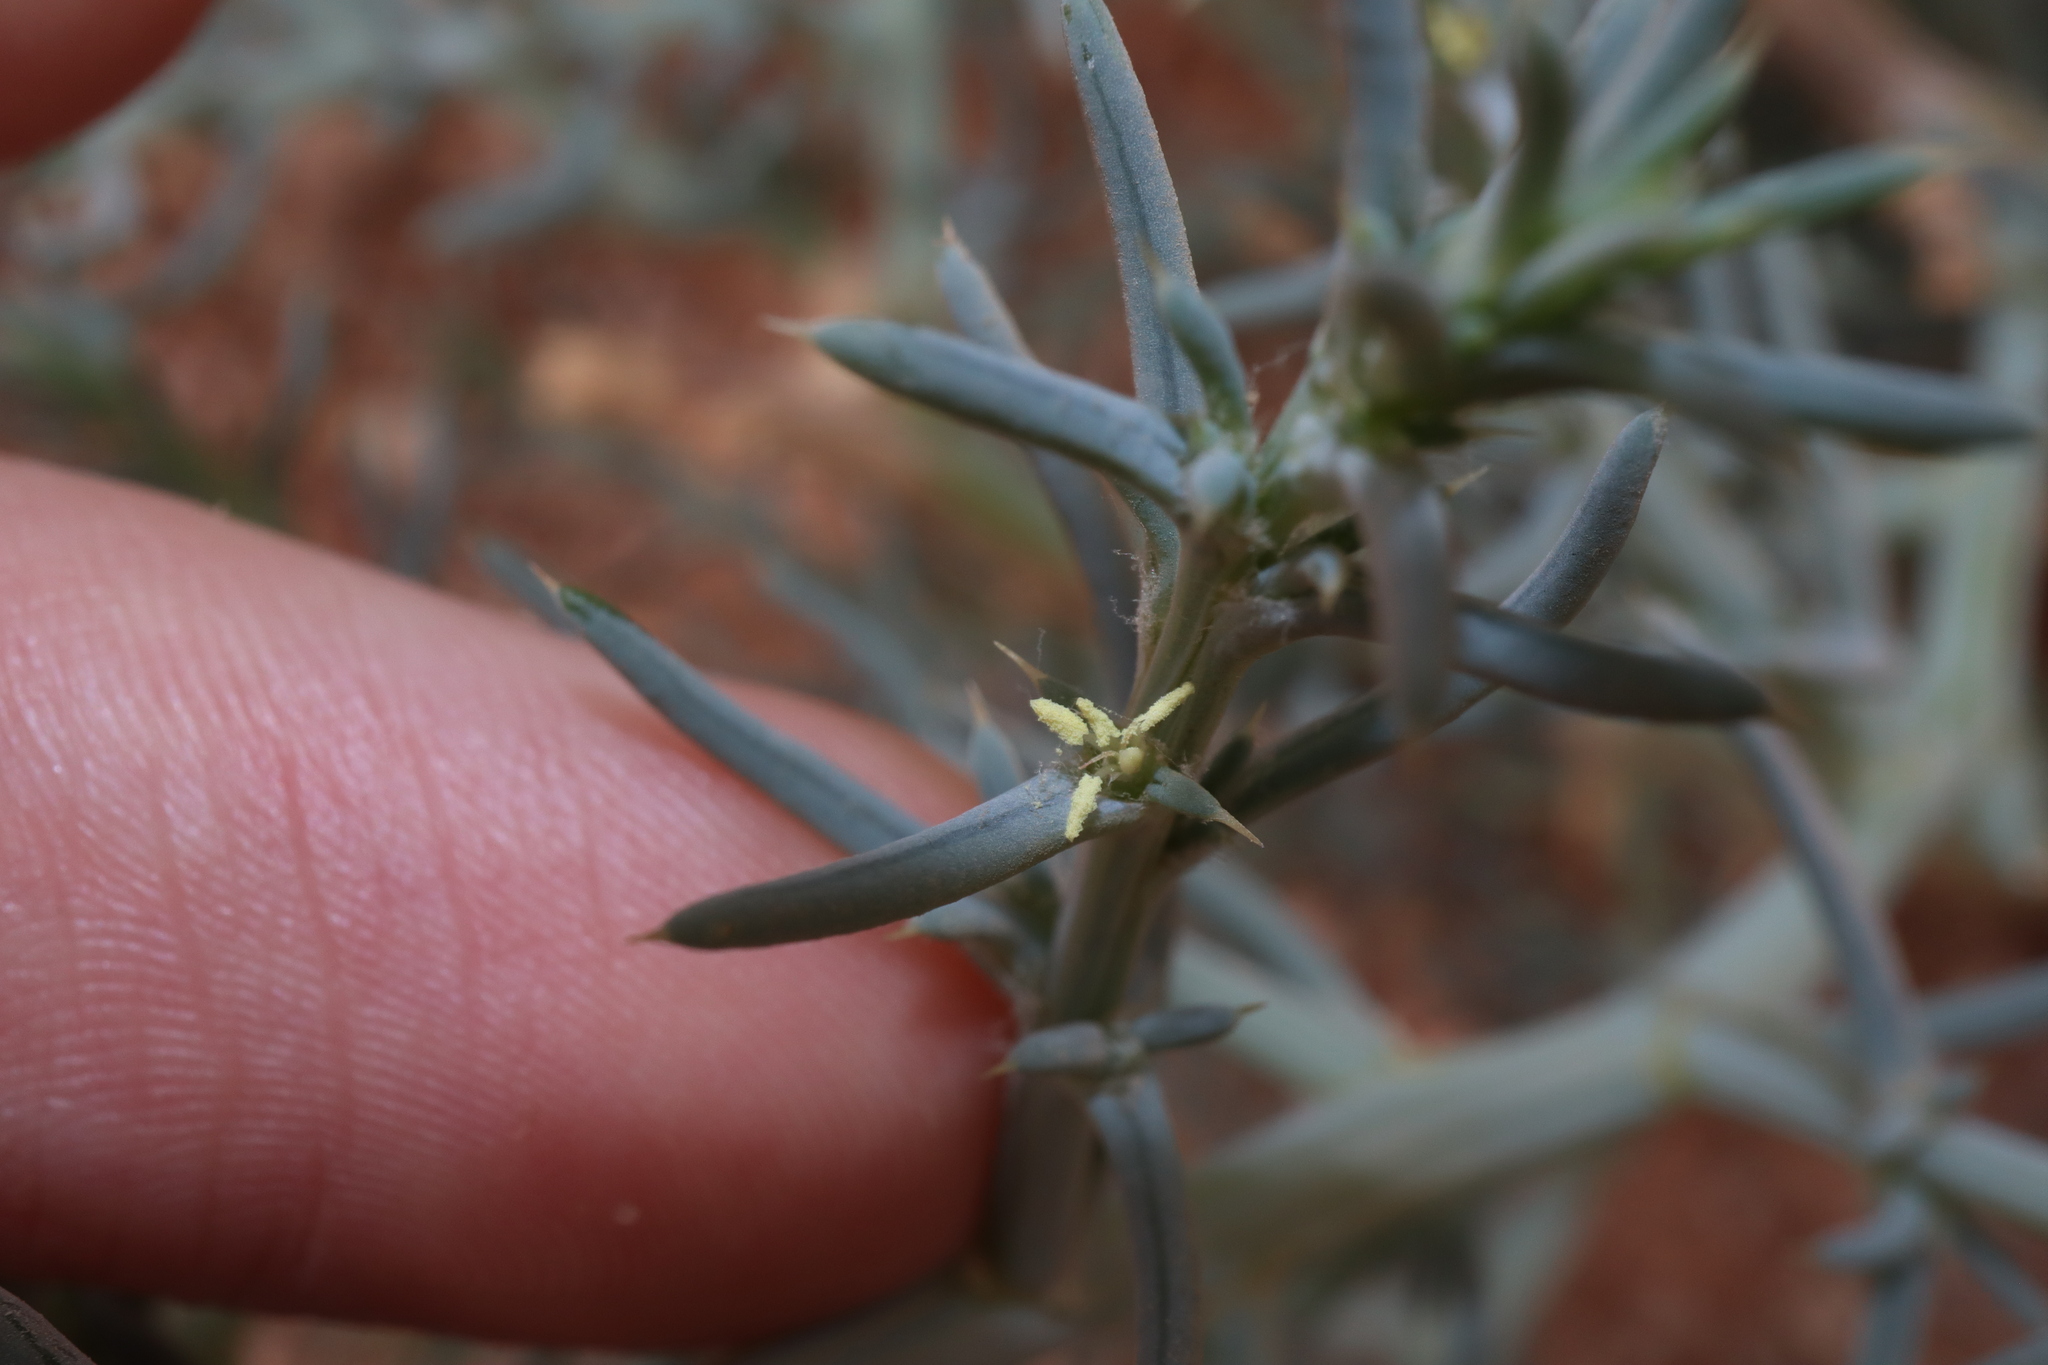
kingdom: Plantae
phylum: Tracheophyta
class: Magnoliopsida
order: Caryophyllales
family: Amaranthaceae
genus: Salsola
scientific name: Salsola australis
